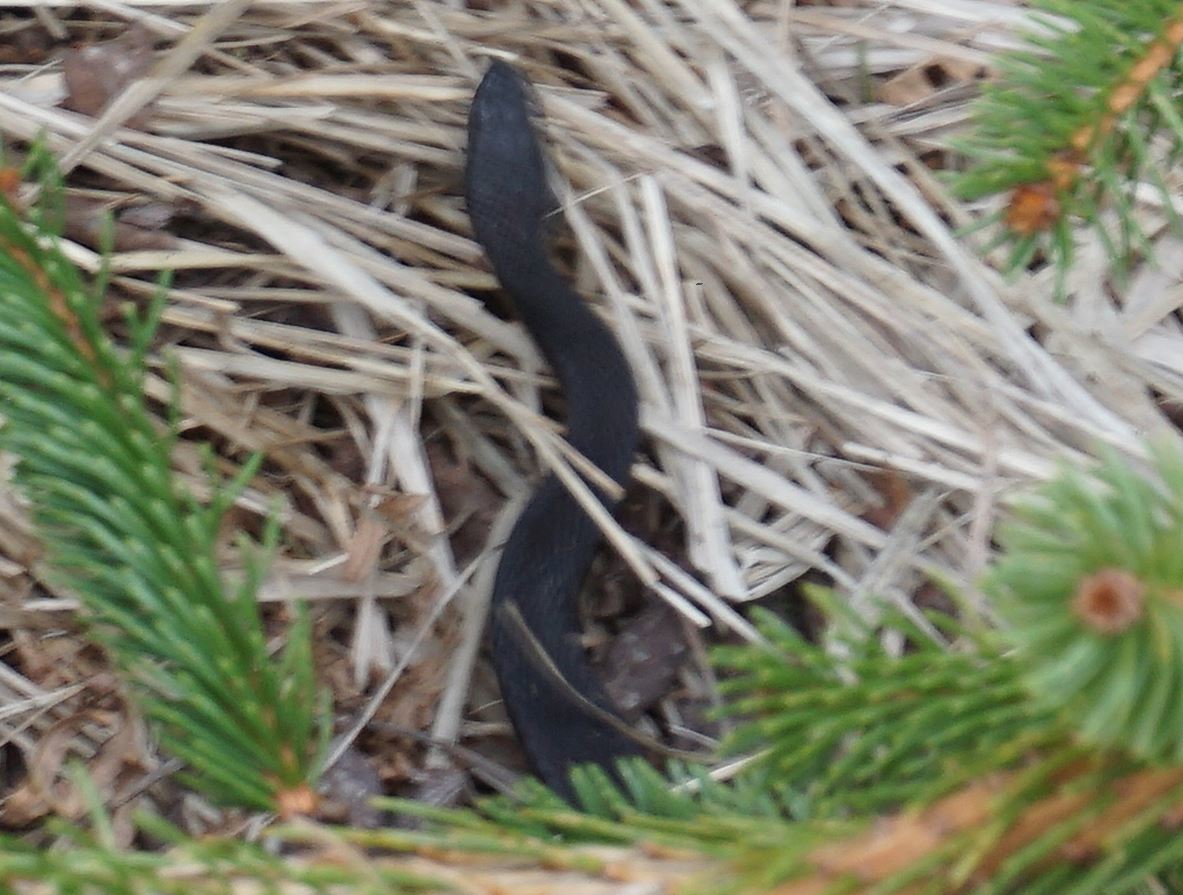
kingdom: Animalia
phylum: Chordata
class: Squamata
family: Viperidae
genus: Vipera
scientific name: Vipera berus
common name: Adder
